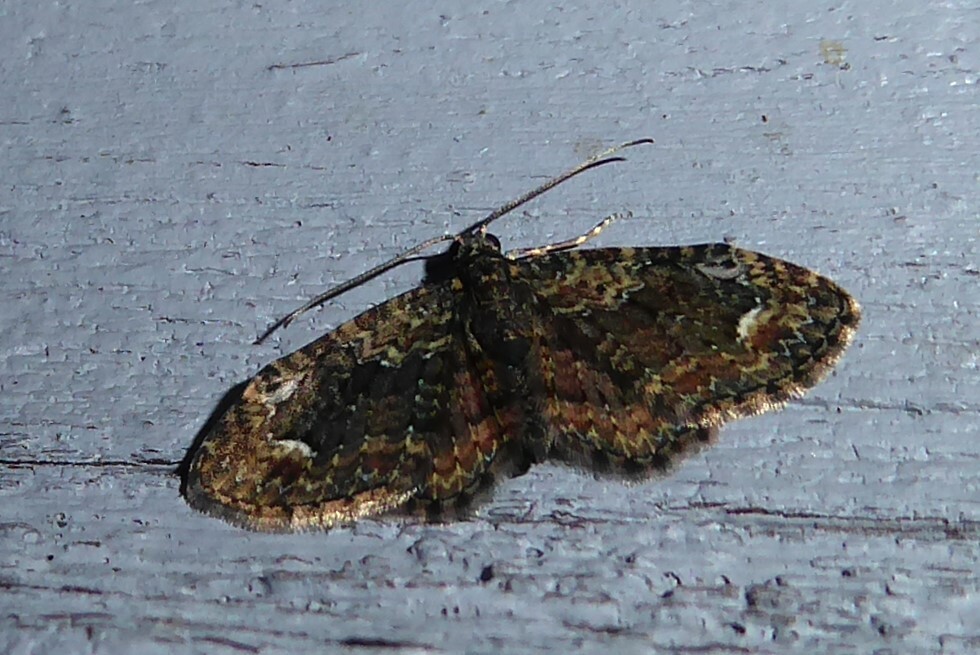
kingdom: Animalia
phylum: Arthropoda
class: Insecta
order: Lepidoptera
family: Geometridae
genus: Pasiphilodes
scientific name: Pasiphilodes testulata
